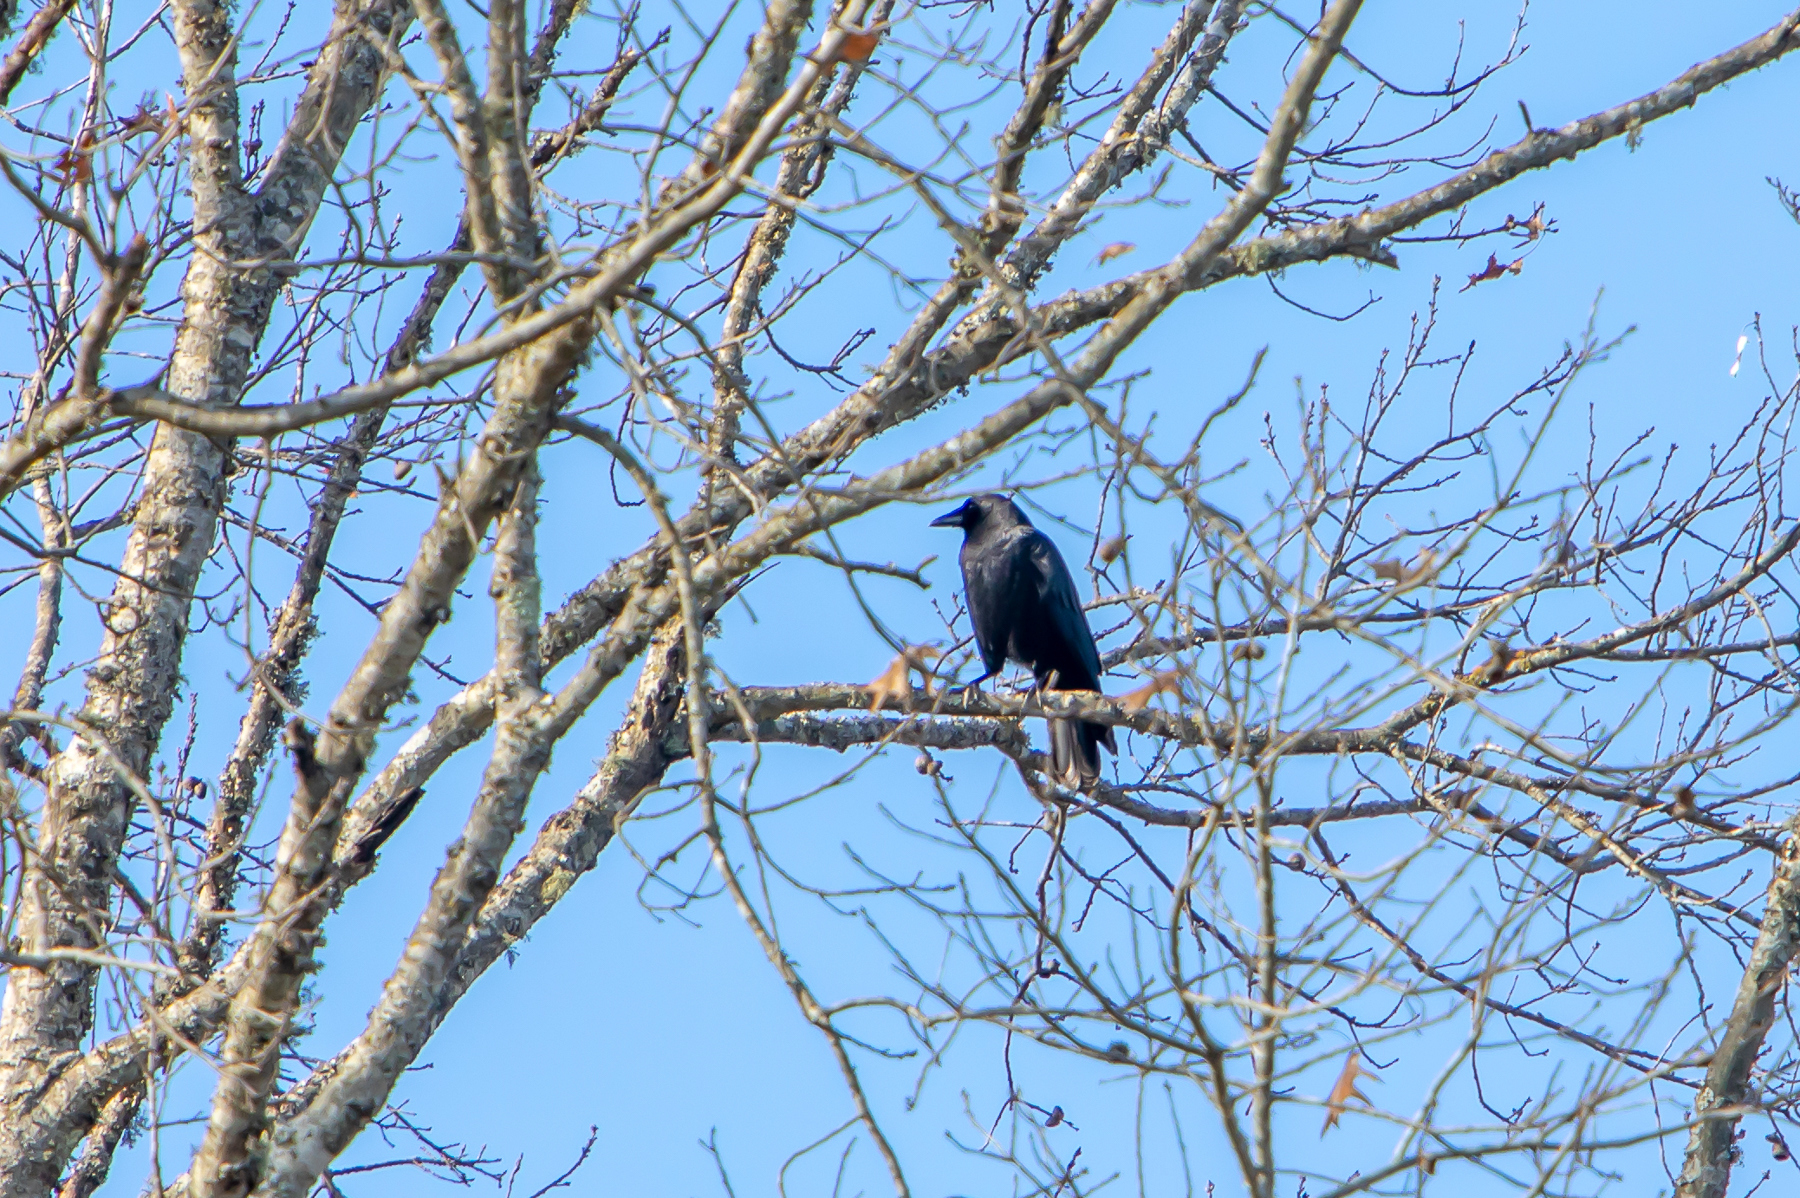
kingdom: Animalia
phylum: Chordata
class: Aves
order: Passeriformes
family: Corvidae
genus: Corvus
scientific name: Corvus brachyrhynchos
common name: American crow
